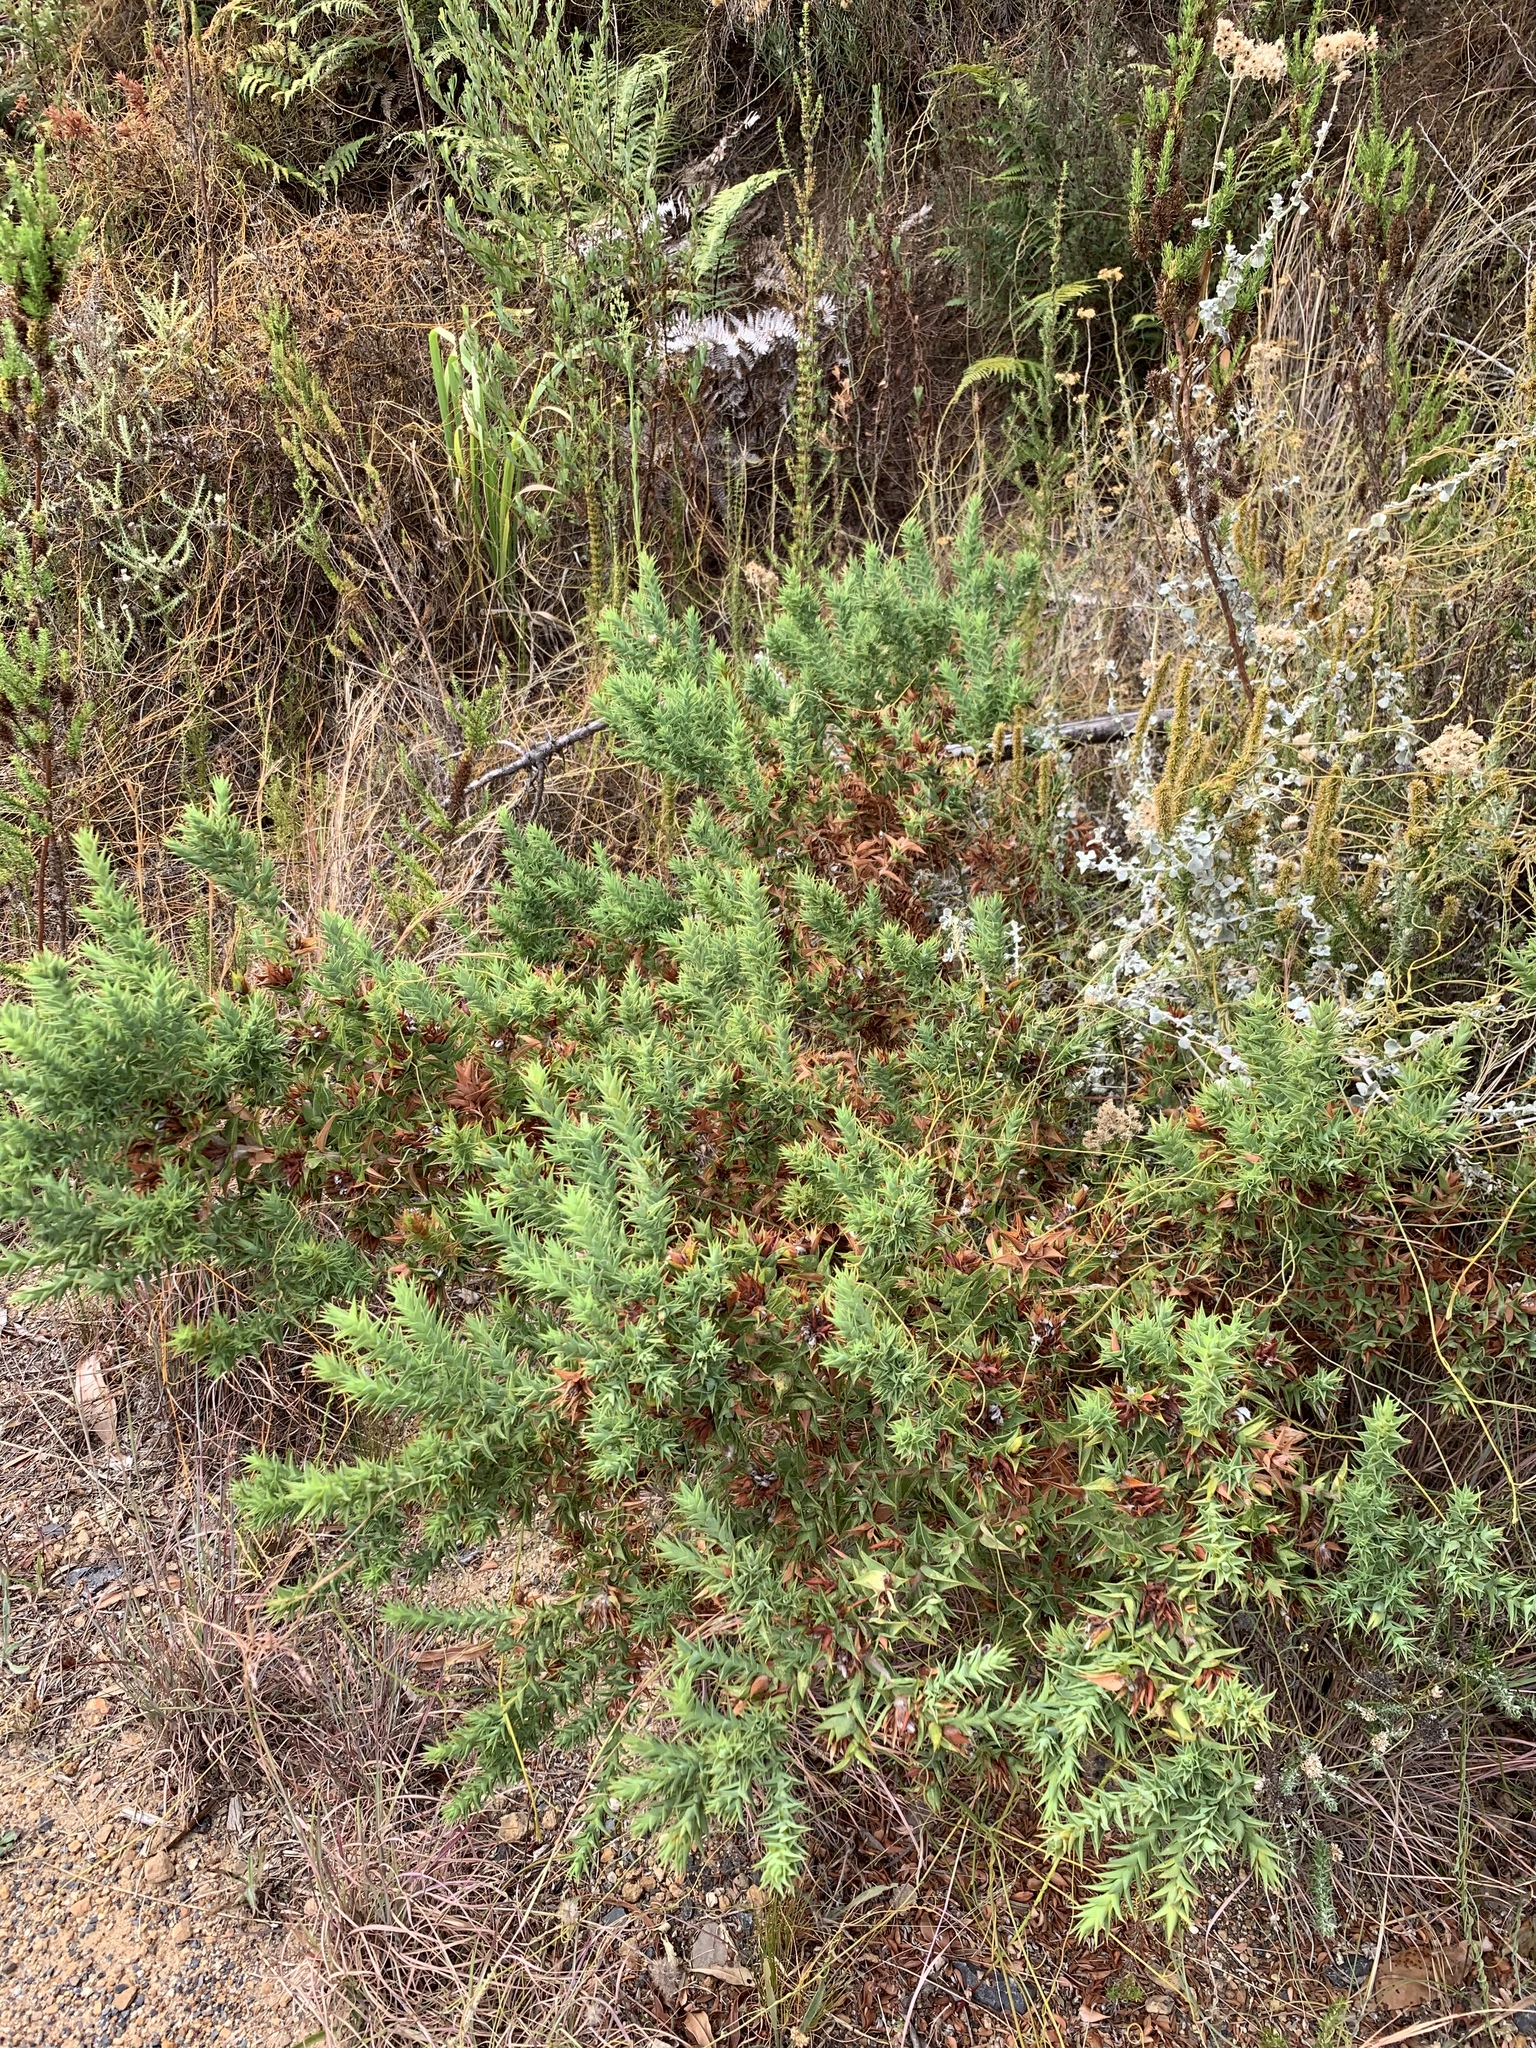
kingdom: Plantae
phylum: Tracheophyta
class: Magnoliopsida
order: Fabales
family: Fabaceae
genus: Aspalathus
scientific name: Aspalathus cordata
